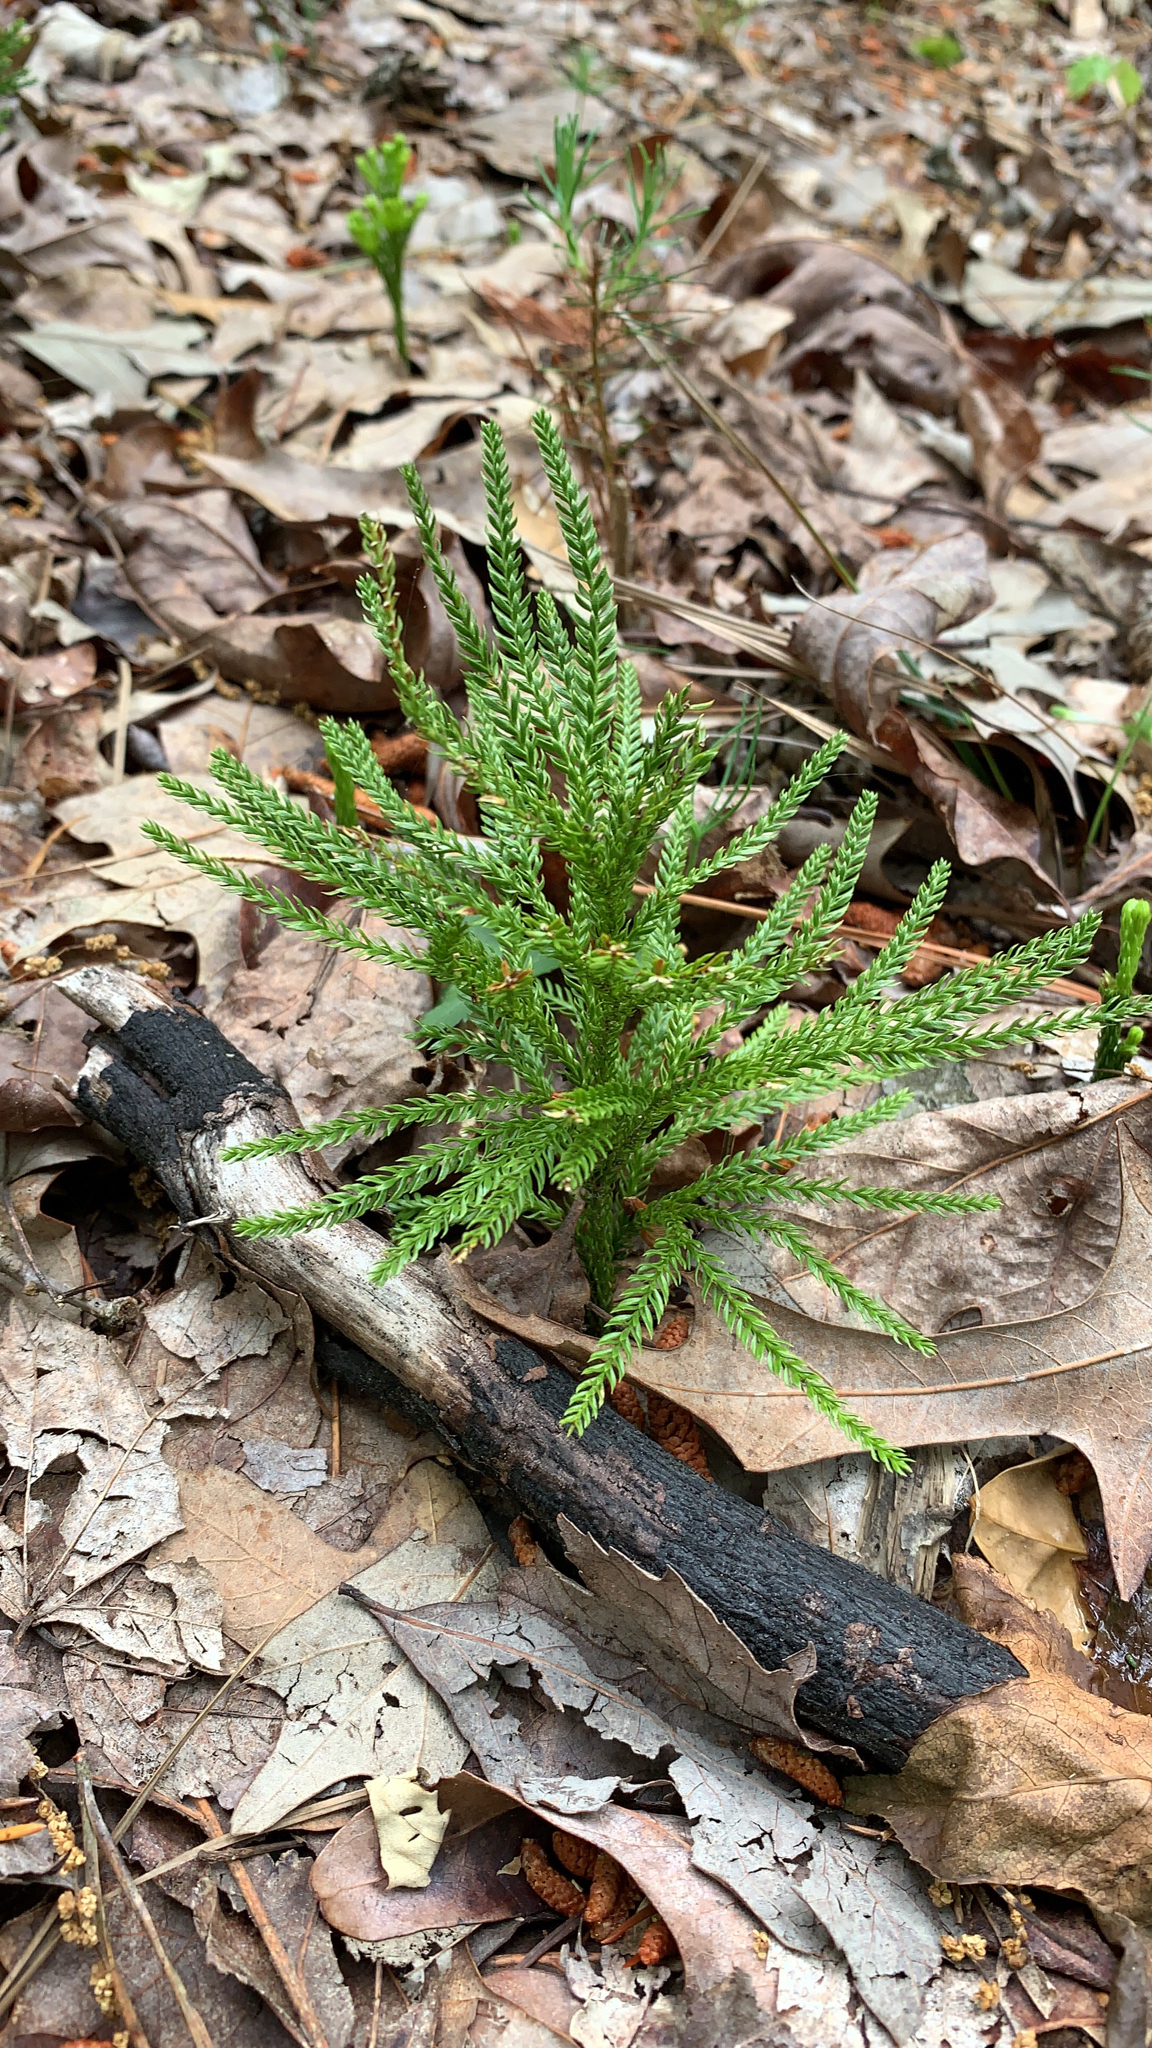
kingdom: Plantae
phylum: Tracheophyta
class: Lycopodiopsida
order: Lycopodiales
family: Lycopodiaceae
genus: Dendrolycopodium
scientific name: Dendrolycopodium obscurum
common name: Common ground-pine
